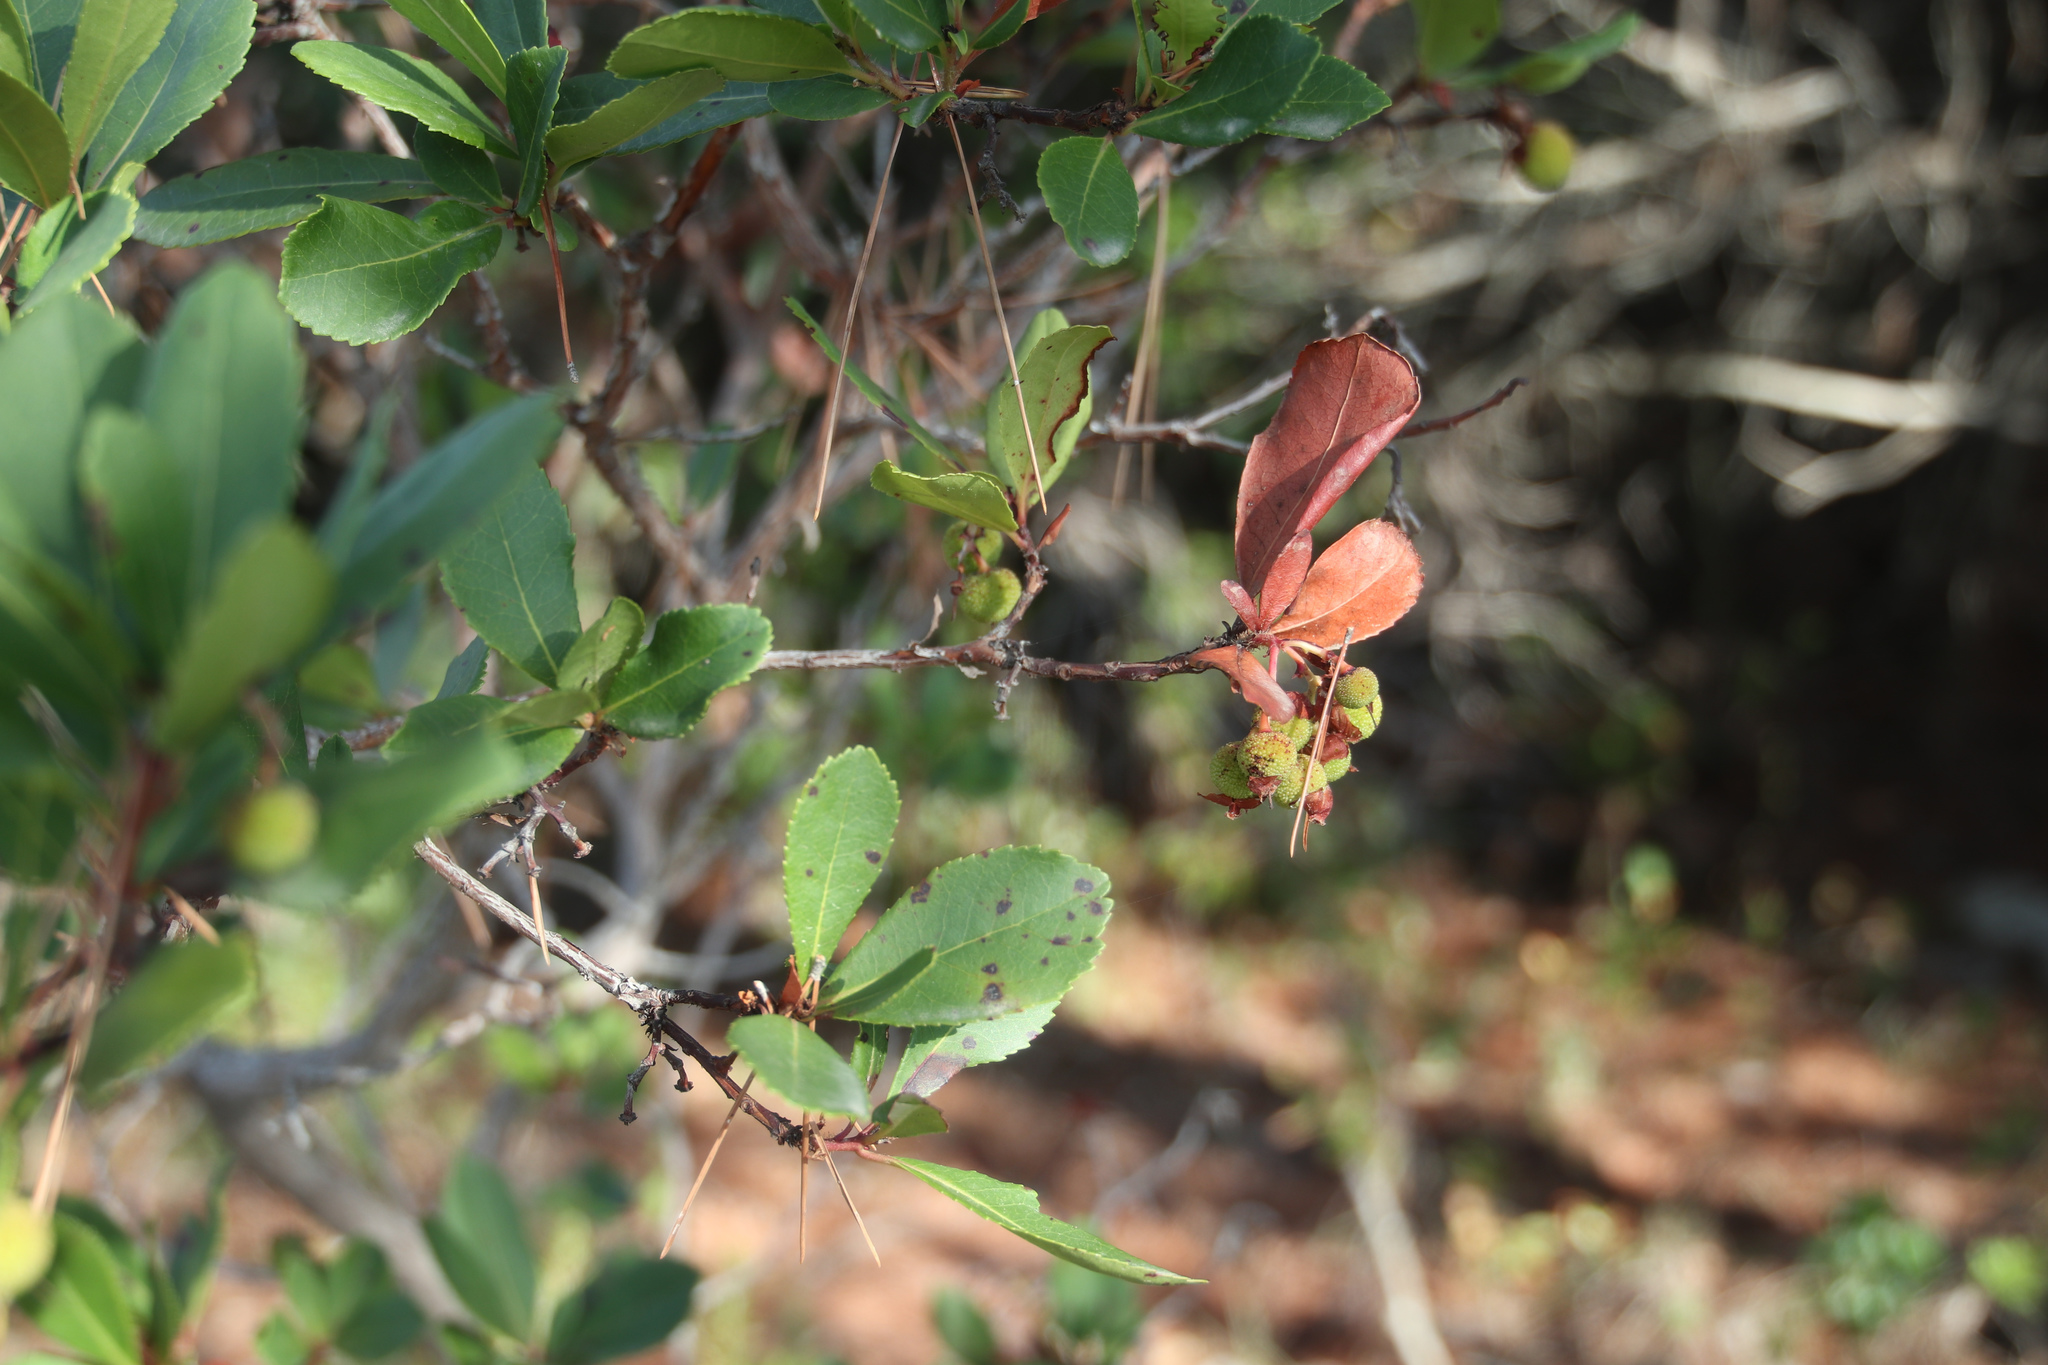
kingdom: Plantae
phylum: Tracheophyta
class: Magnoliopsida
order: Ericales
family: Ericaceae
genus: Arbutus
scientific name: Arbutus unedo
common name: Strawberry-tree
